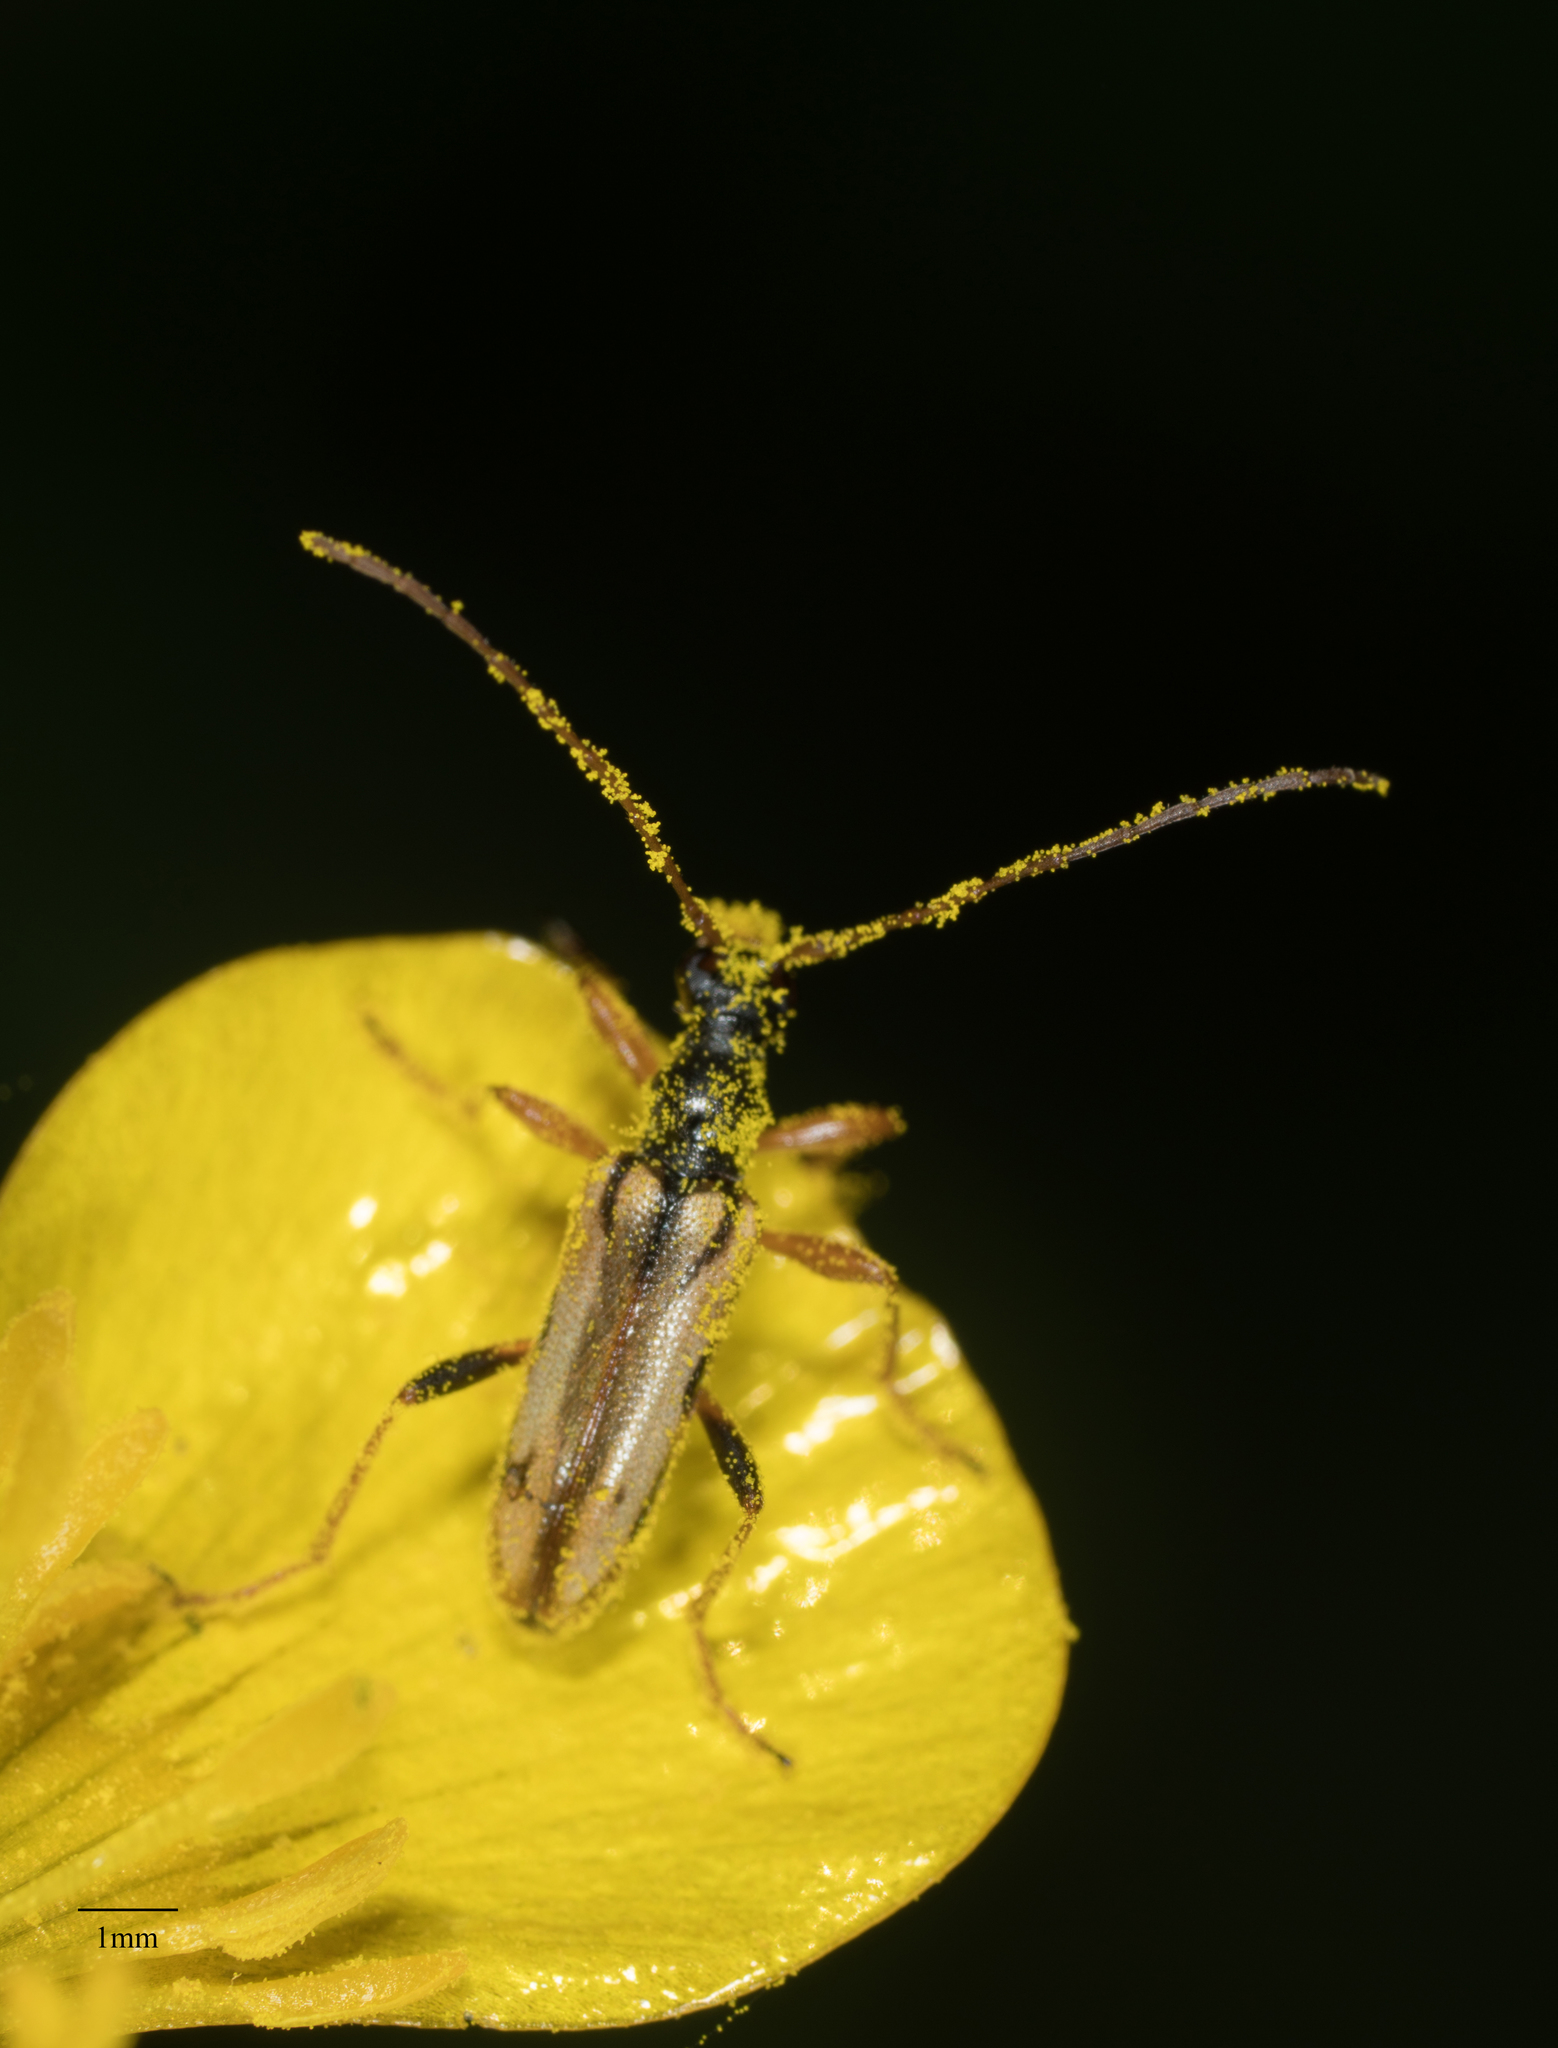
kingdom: Animalia
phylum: Arthropoda
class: Insecta
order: Coleoptera
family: Cerambycidae
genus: Pidonia
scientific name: Pidonia scripta
